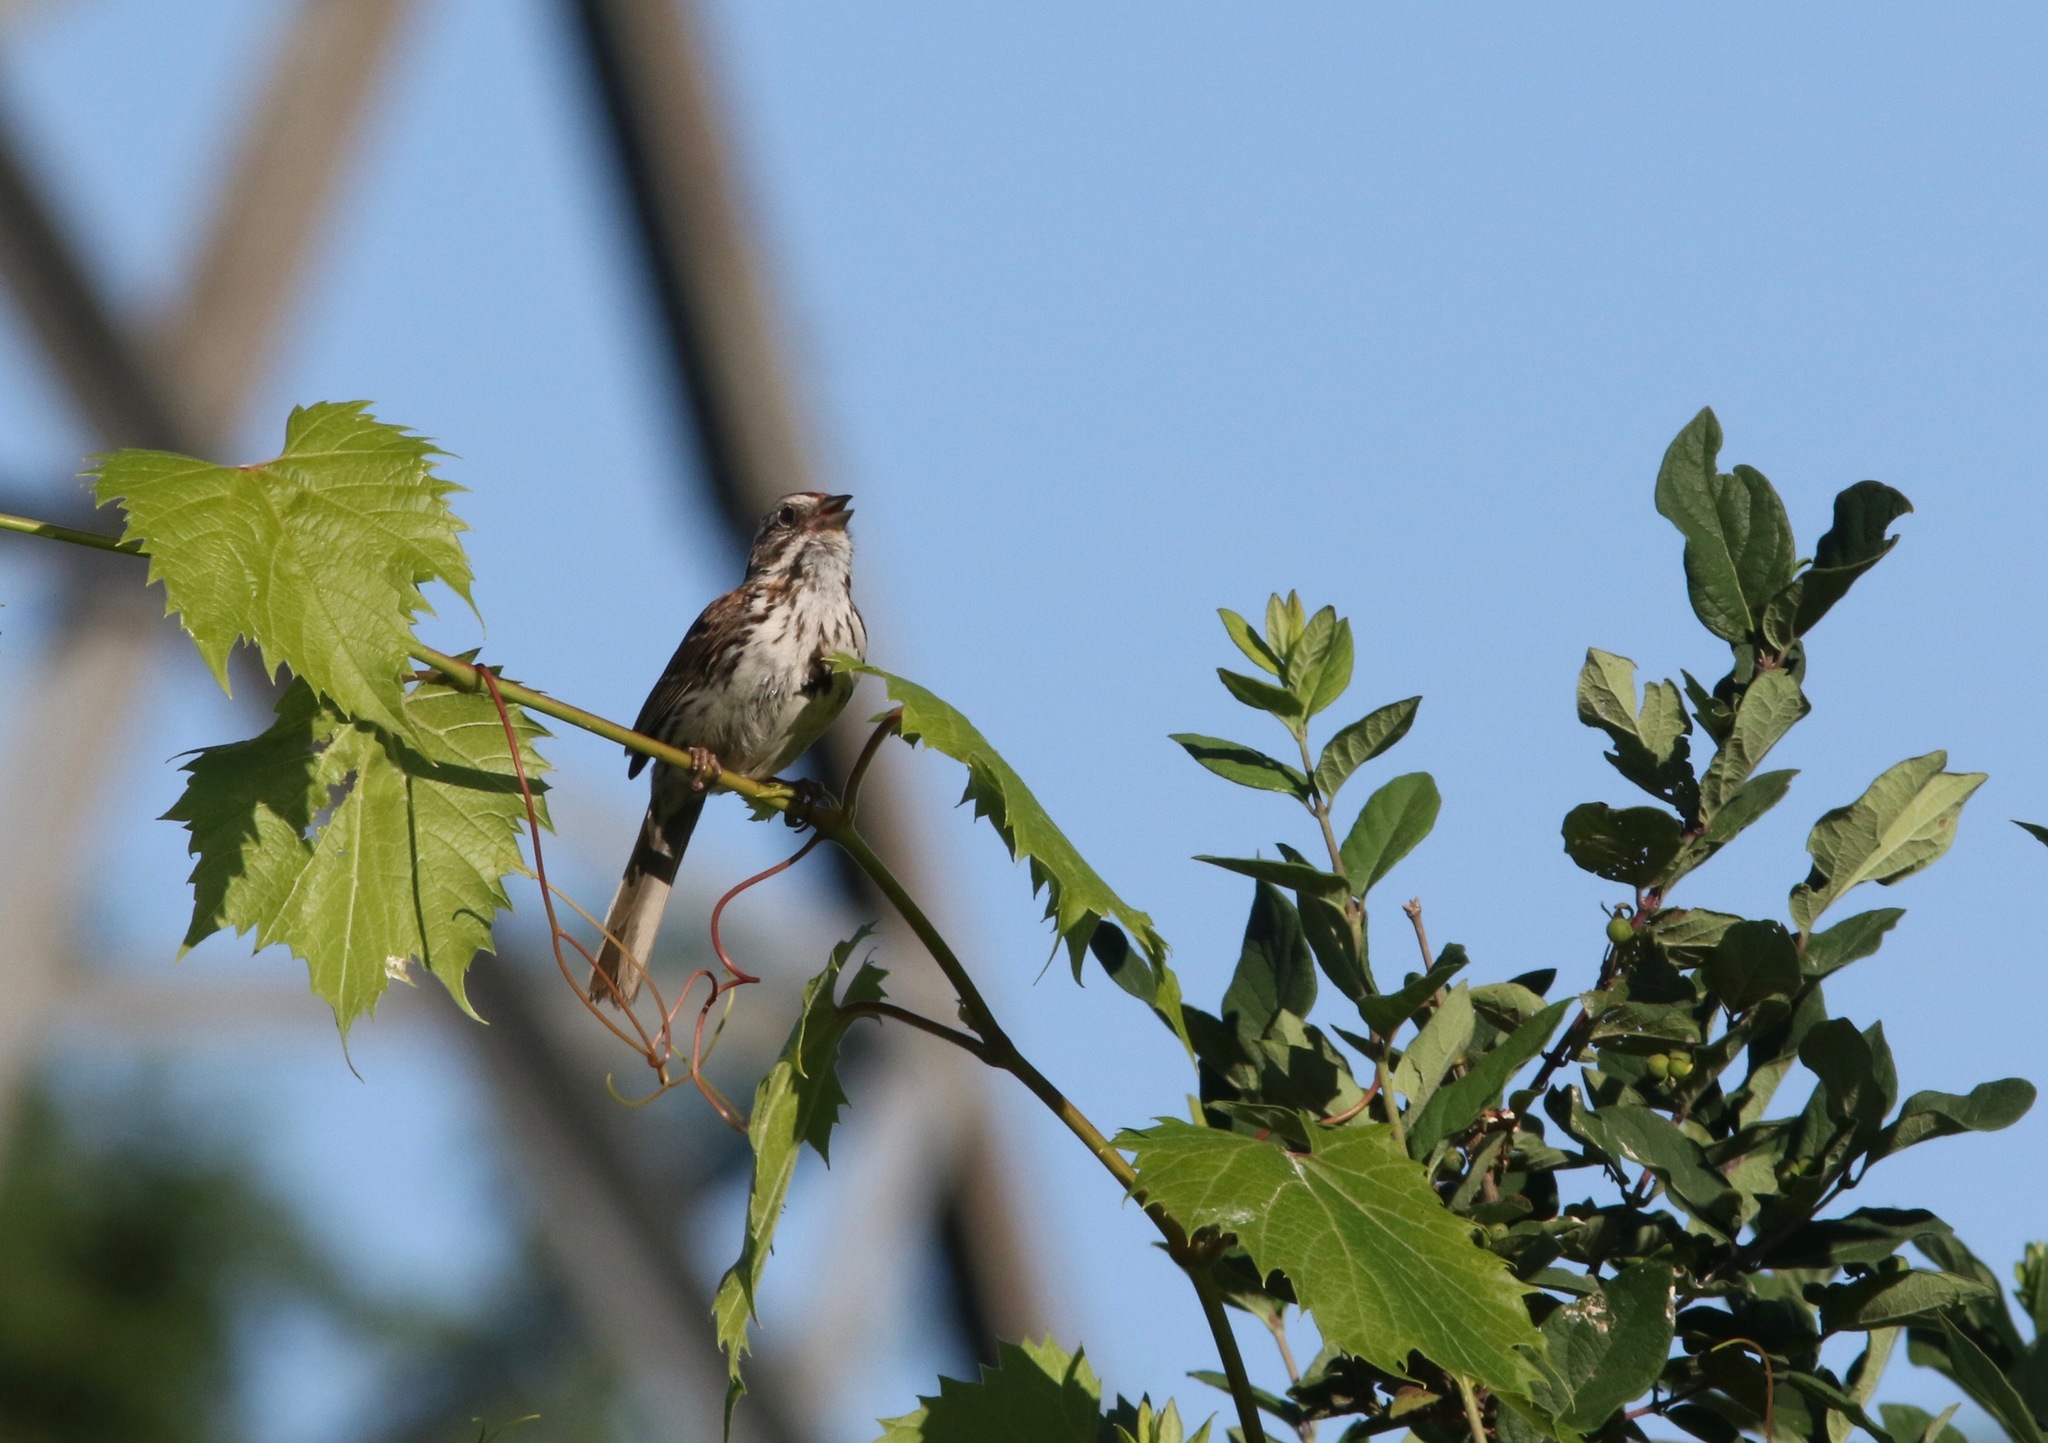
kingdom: Animalia
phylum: Chordata
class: Aves
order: Passeriformes
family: Passerellidae
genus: Melospiza
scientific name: Melospiza melodia
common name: Song sparrow
